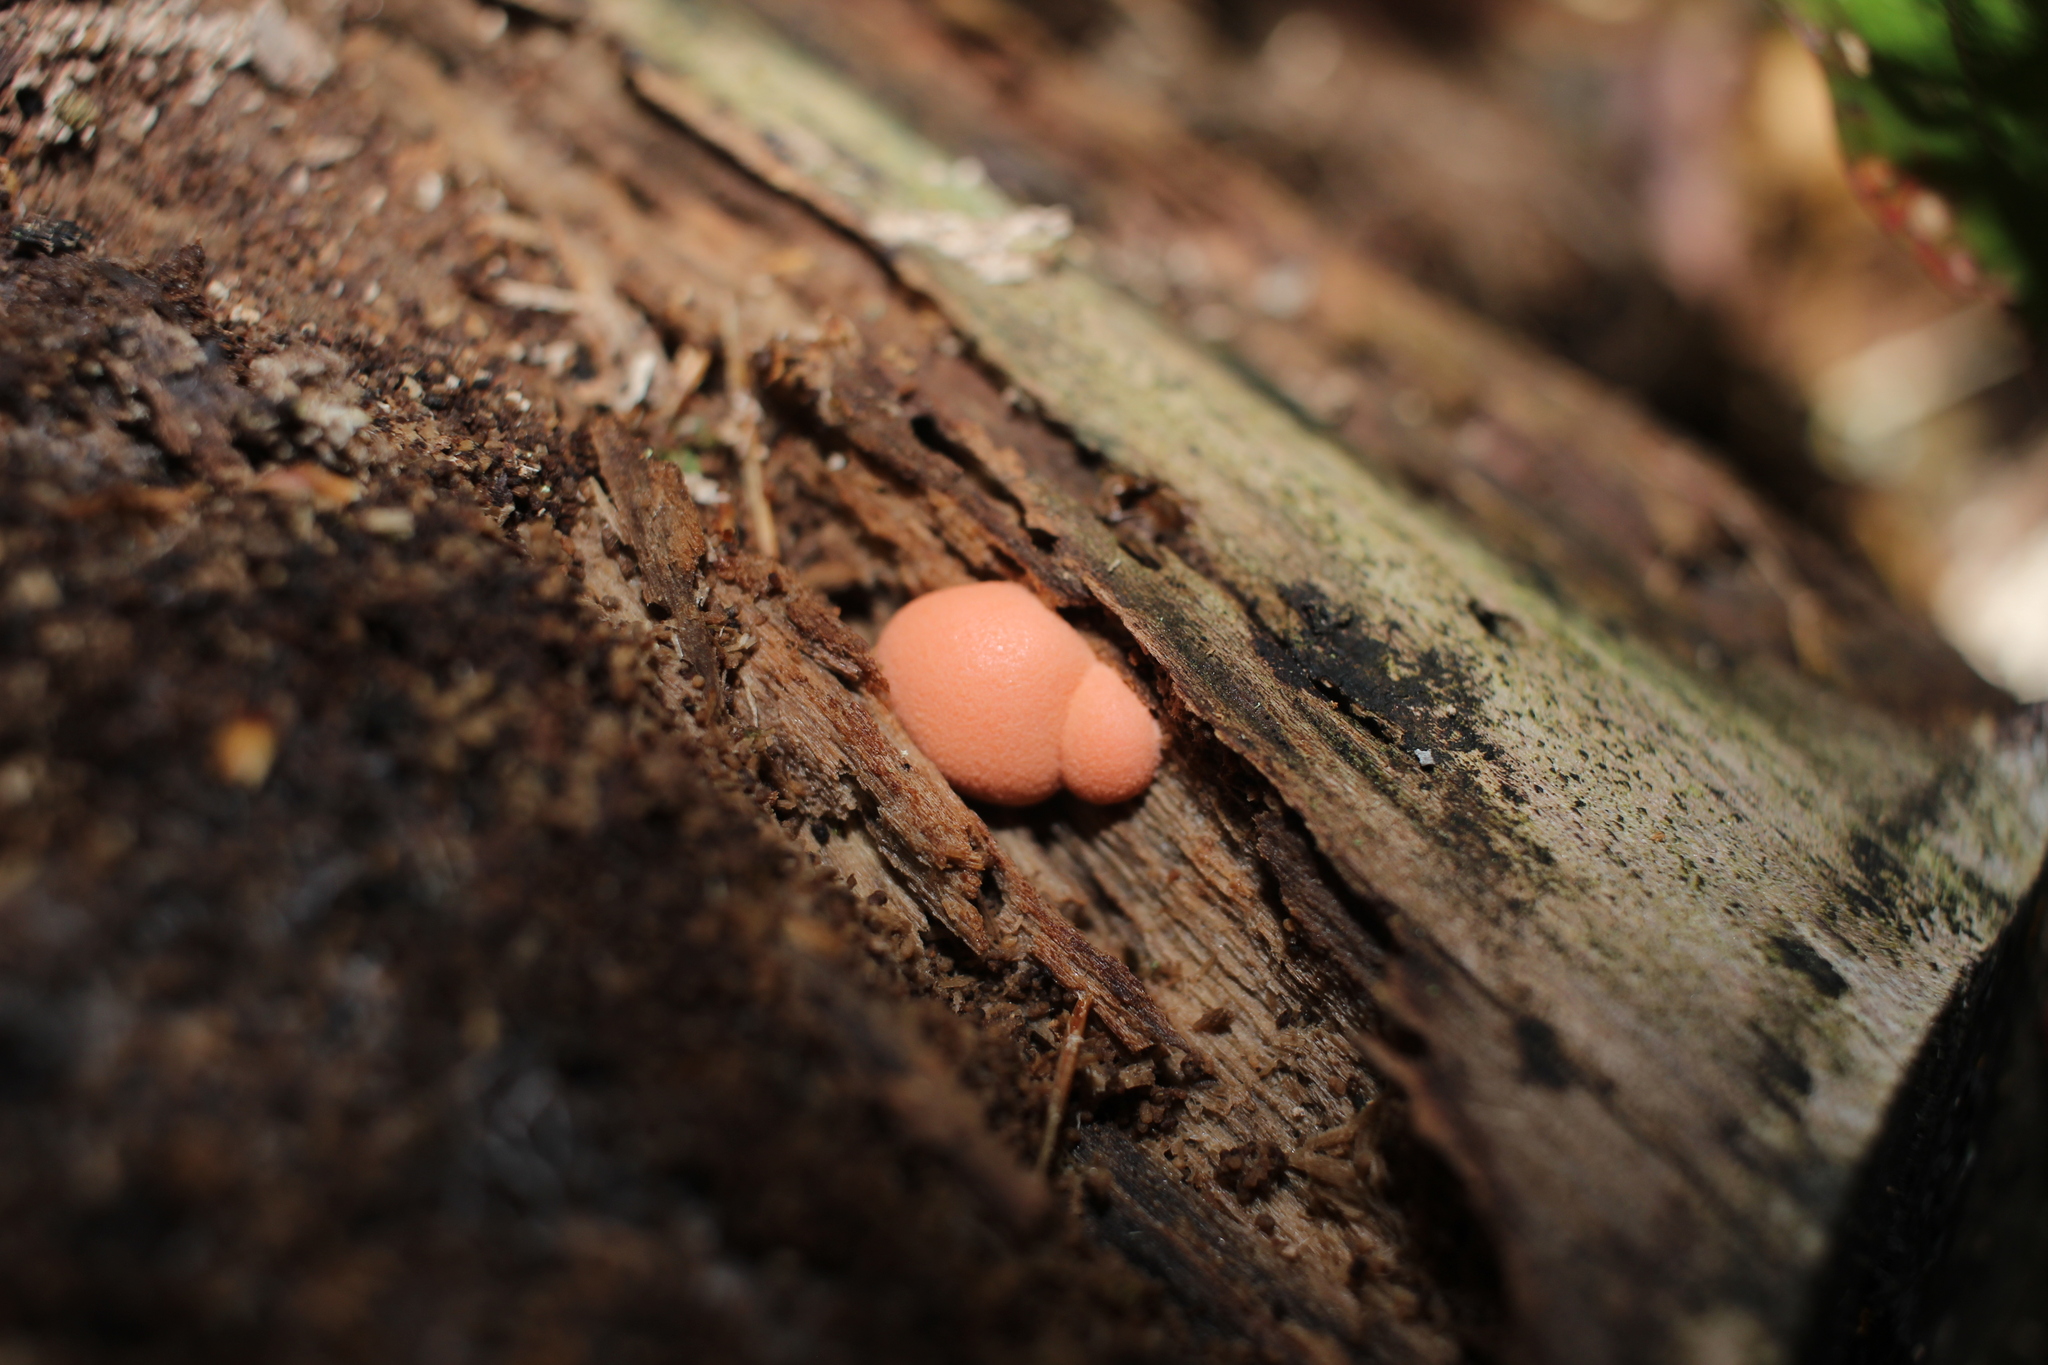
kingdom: Protozoa
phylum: Mycetozoa
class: Myxomycetes
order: Cribrariales
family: Tubiferaceae
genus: Lycogala
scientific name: Lycogala
